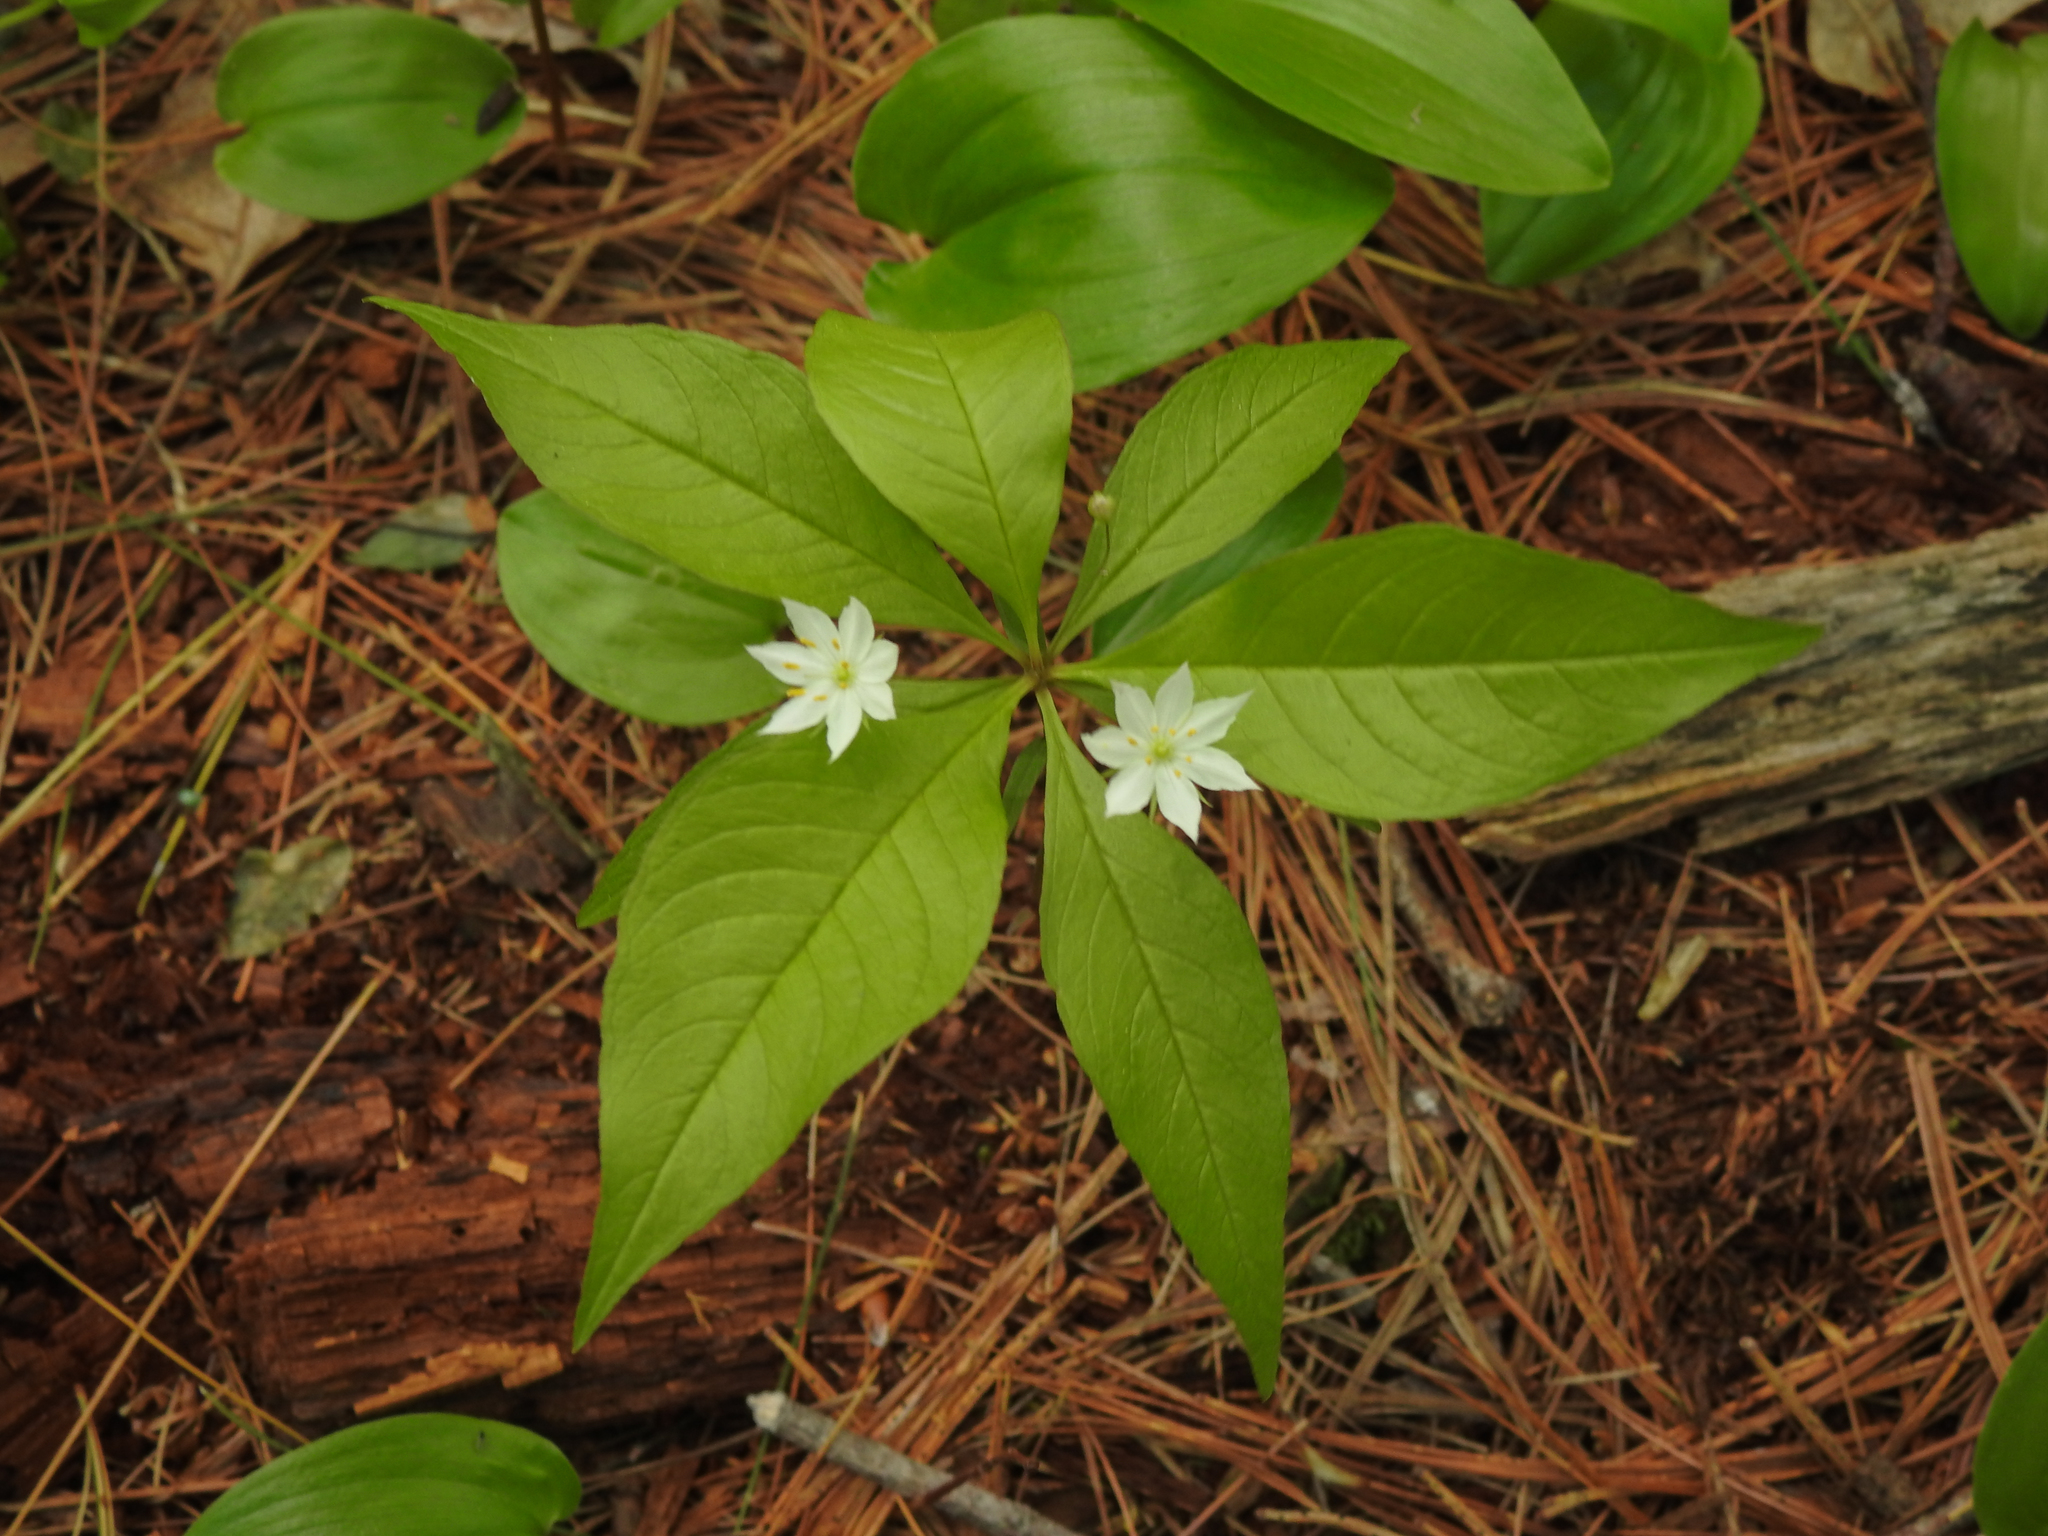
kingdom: Plantae
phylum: Tracheophyta
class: Magnoliopsida
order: Ericales
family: Primulaceae
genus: Lysimachia
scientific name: Lysimachia borealis
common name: American starflower
